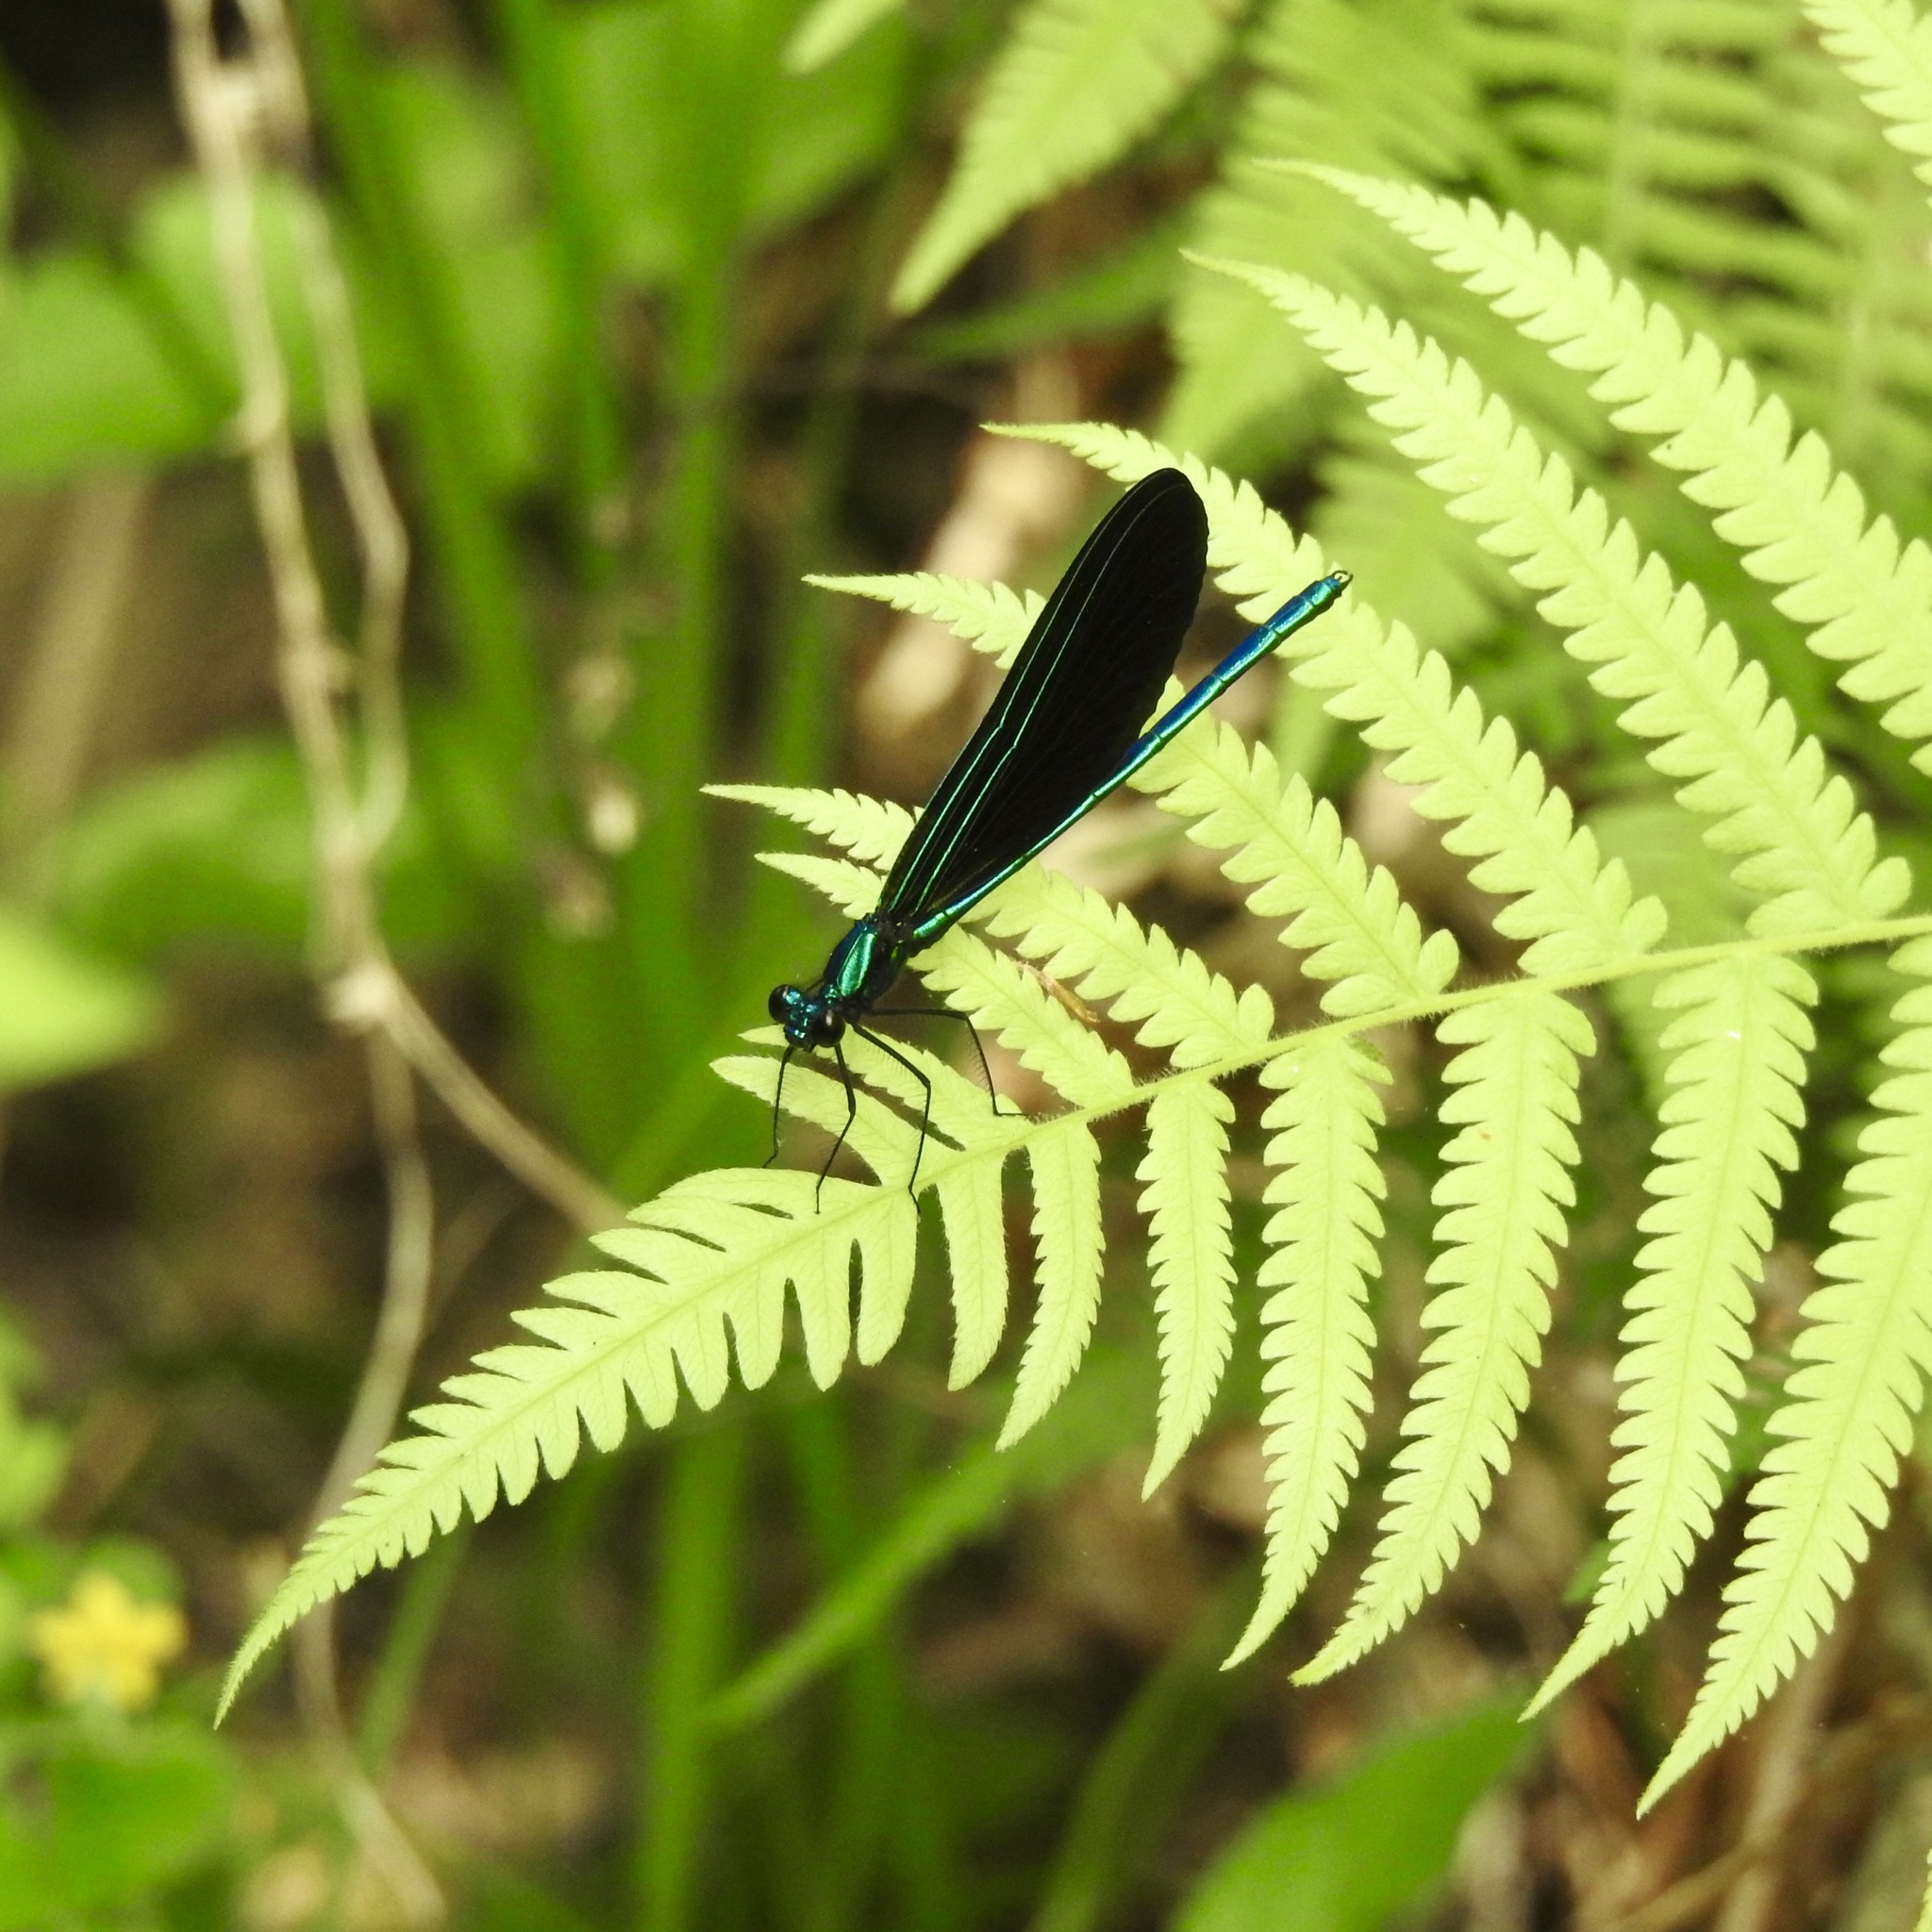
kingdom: Animalia
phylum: Arthropoda
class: Insecta
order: Odonata
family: Calopterygidae
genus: Calopteryx
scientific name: Calopteryx maculata
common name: Ebony jewelwing
